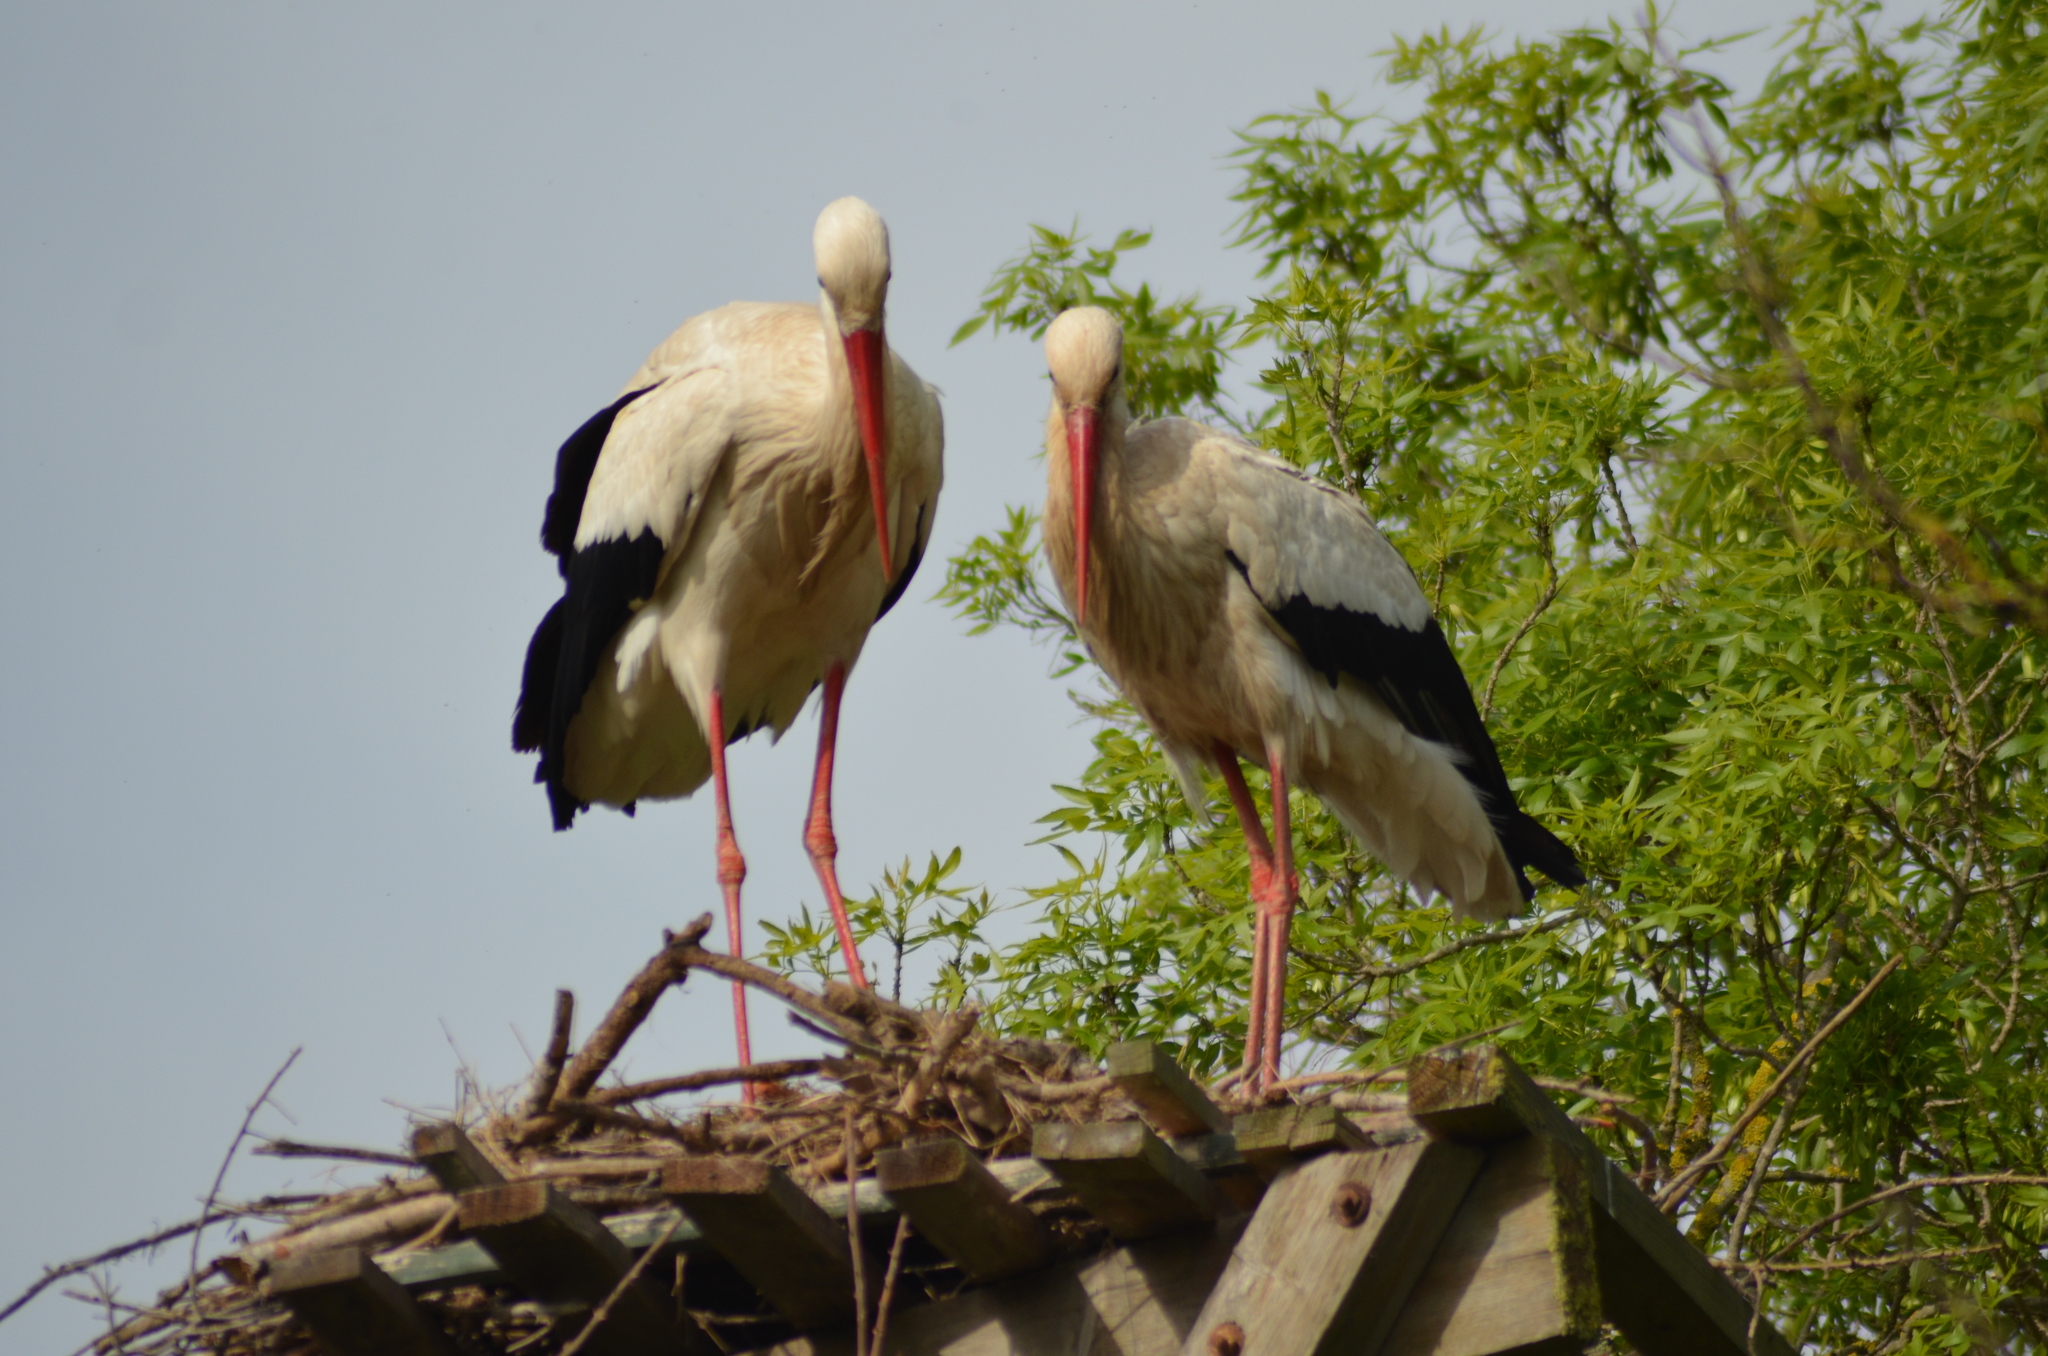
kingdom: Animalia
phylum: Chordata
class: Aves
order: Ciconiiformes
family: Ciconiidae
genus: Ciconia
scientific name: Ciconia ciconia
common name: White stork
